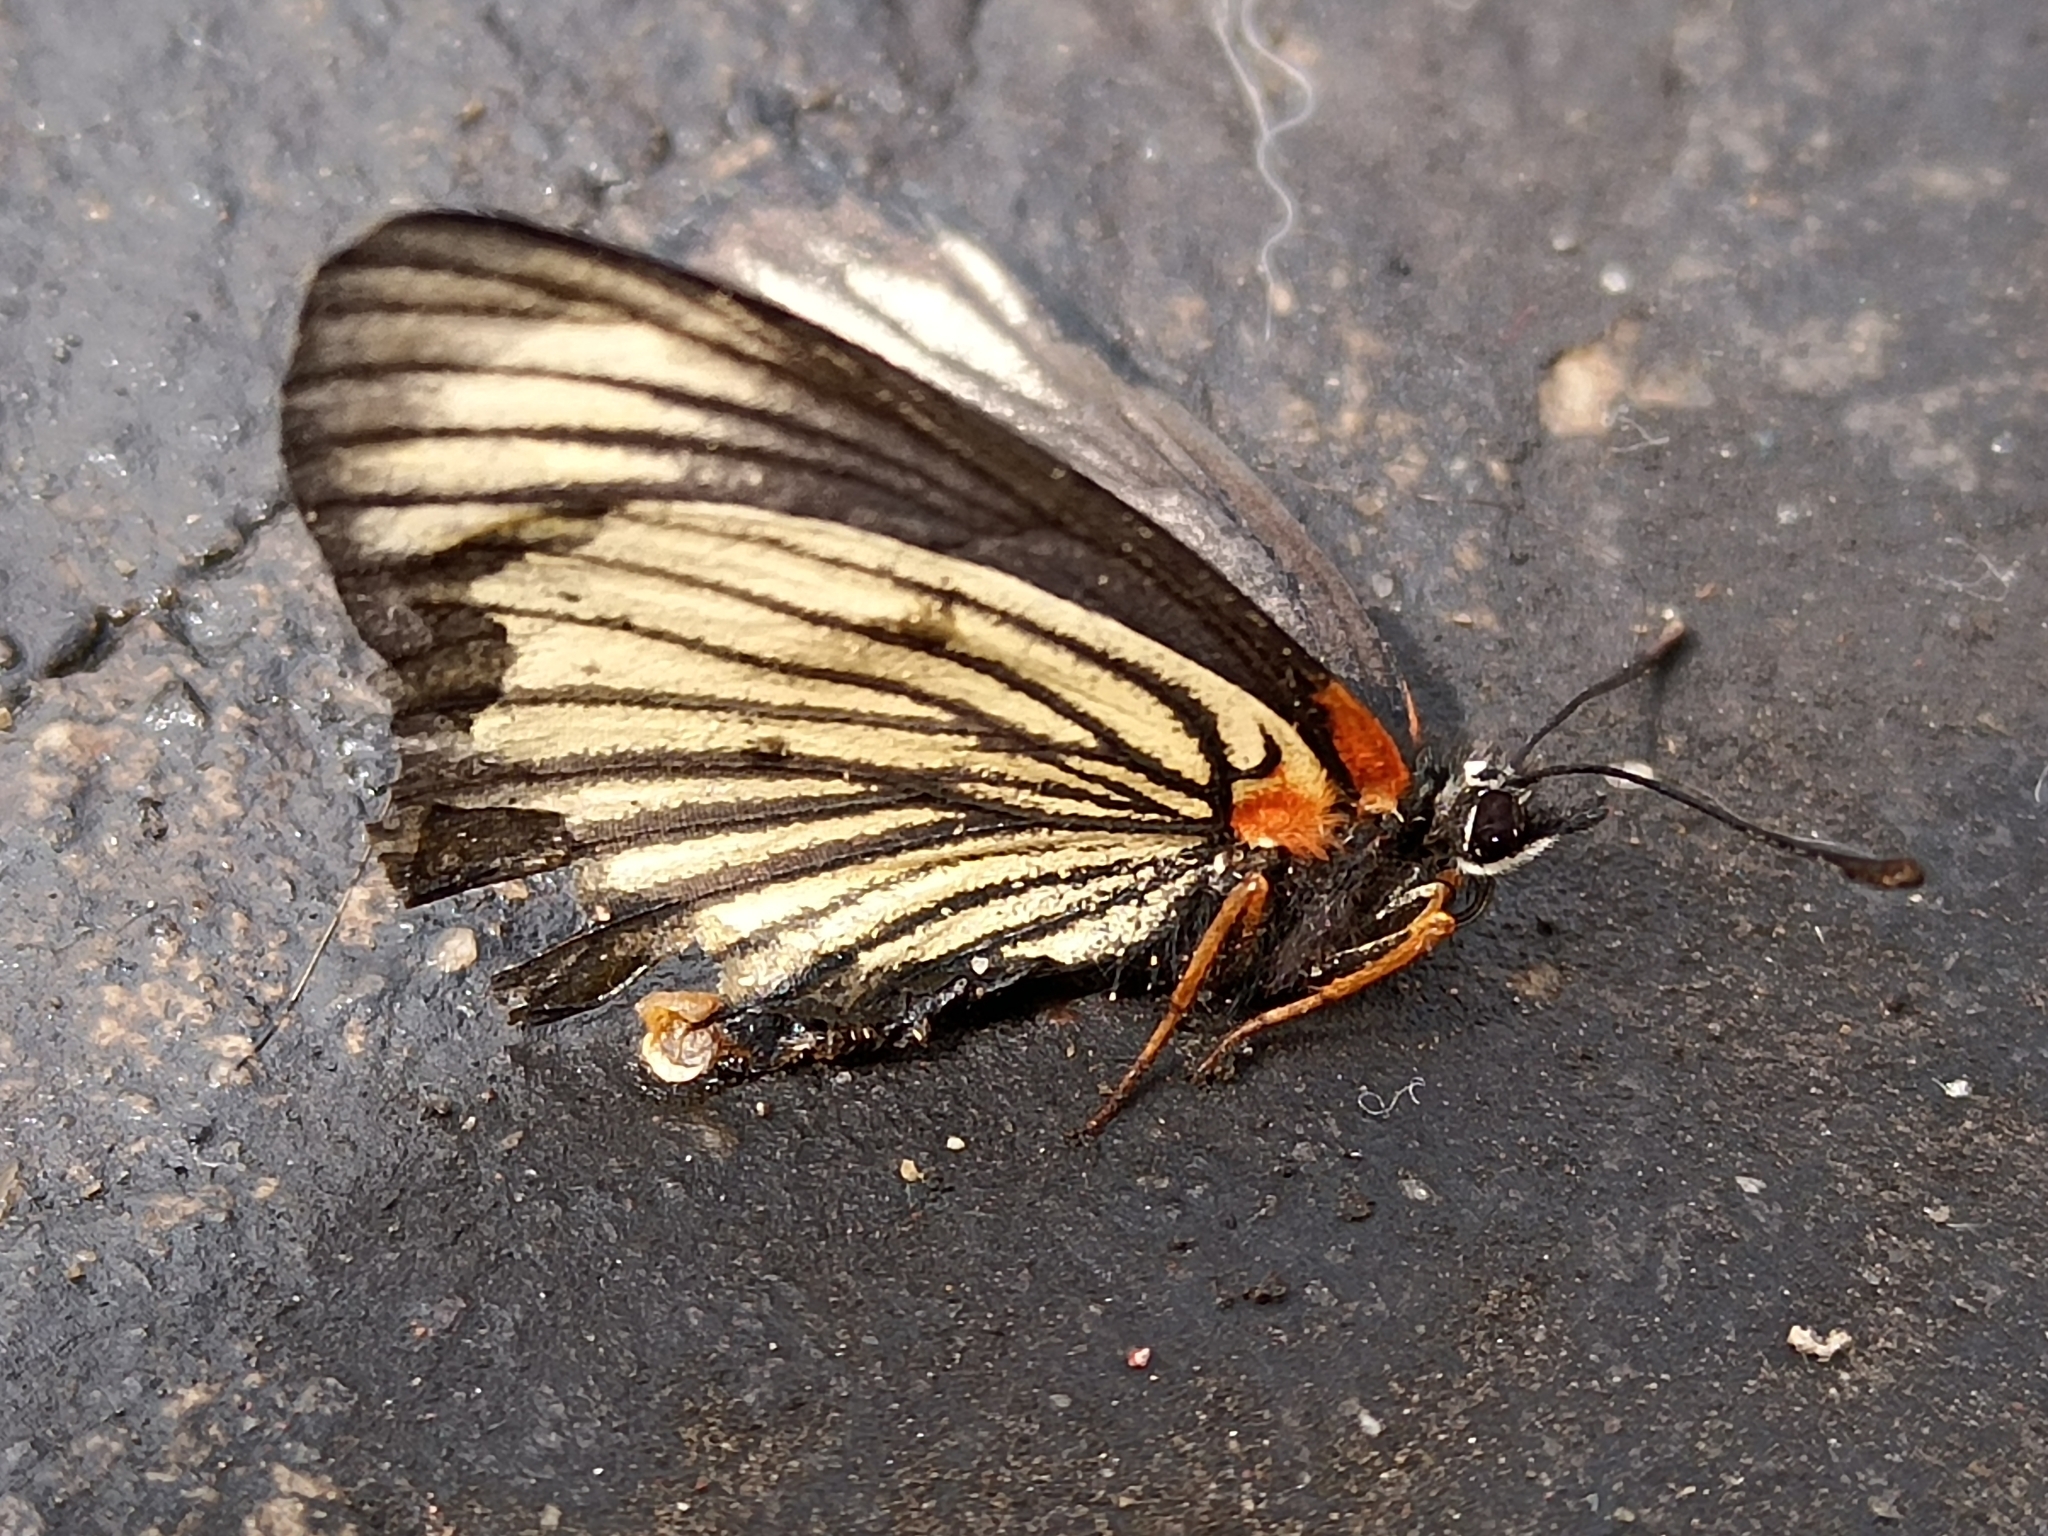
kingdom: Animalia
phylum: Arthropoda
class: Insecta
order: Lepidoptera
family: Nymphalidae
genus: Chlosyne
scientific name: Chlosyne ehrenbergii
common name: White-rayed patch
